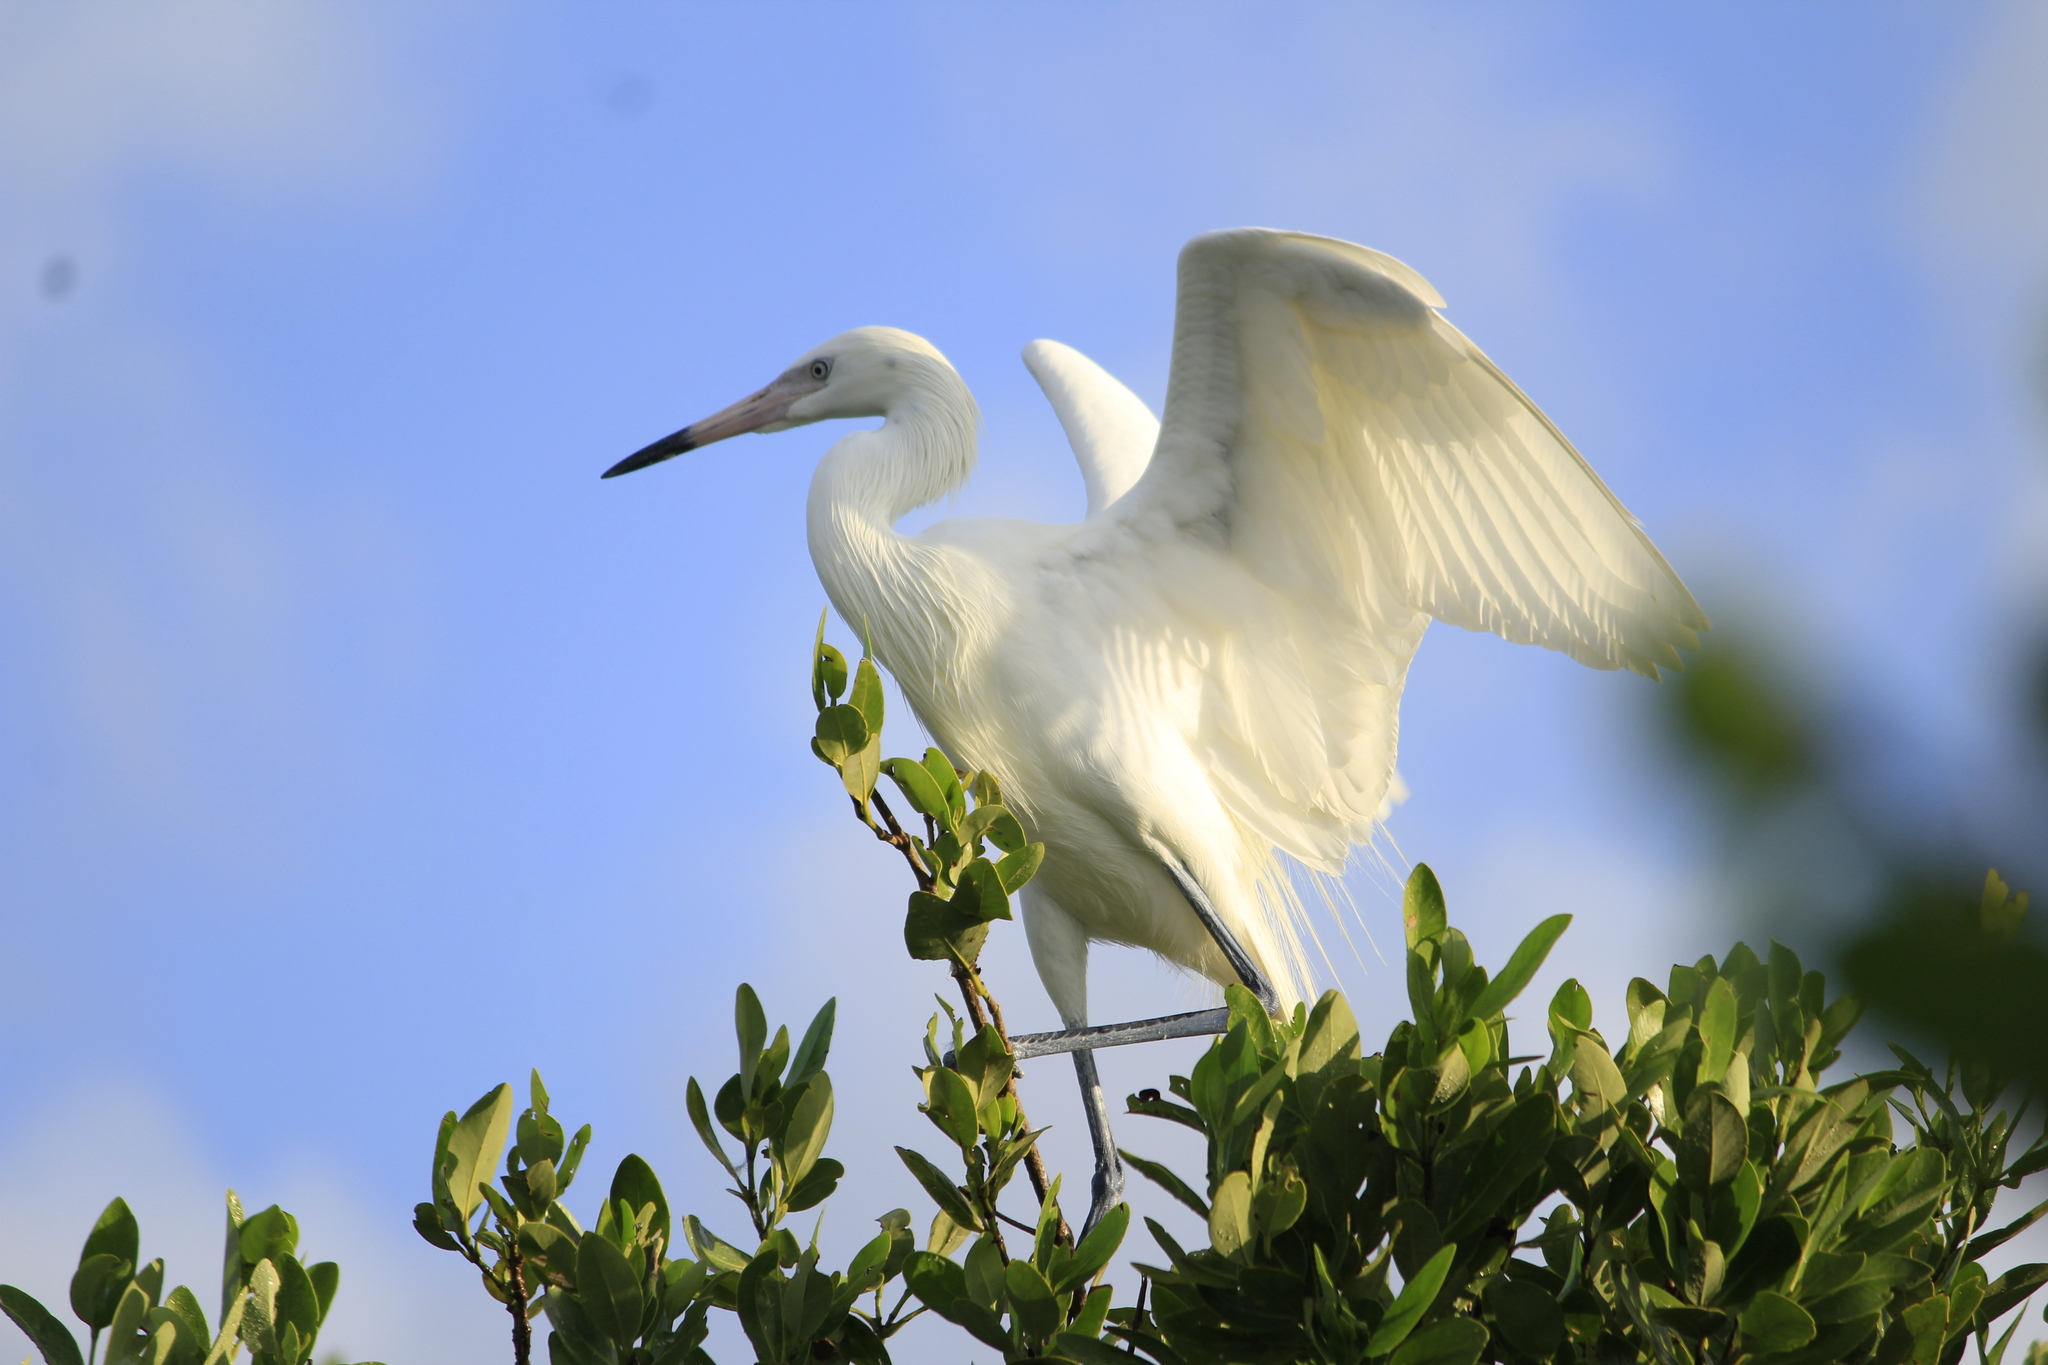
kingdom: Animalia
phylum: Chordata
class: Aves
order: Pelecaniformes
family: Ardeidae
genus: Egretta
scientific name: Egretta rufescens
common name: Reddish egret
